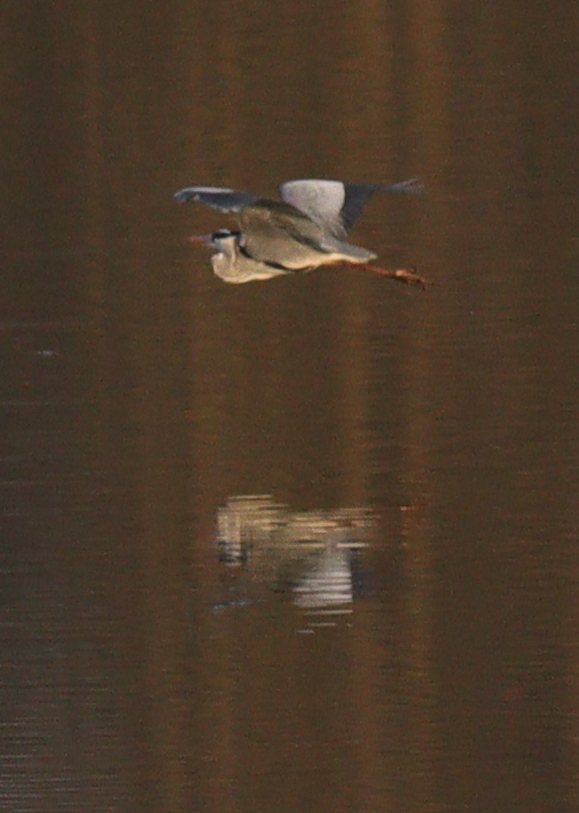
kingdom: Animalia
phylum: Chordata
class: Aves
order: Pelecaniformes
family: Ardeidae
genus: Ardea
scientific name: Ardea cinerea
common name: Grey heron
